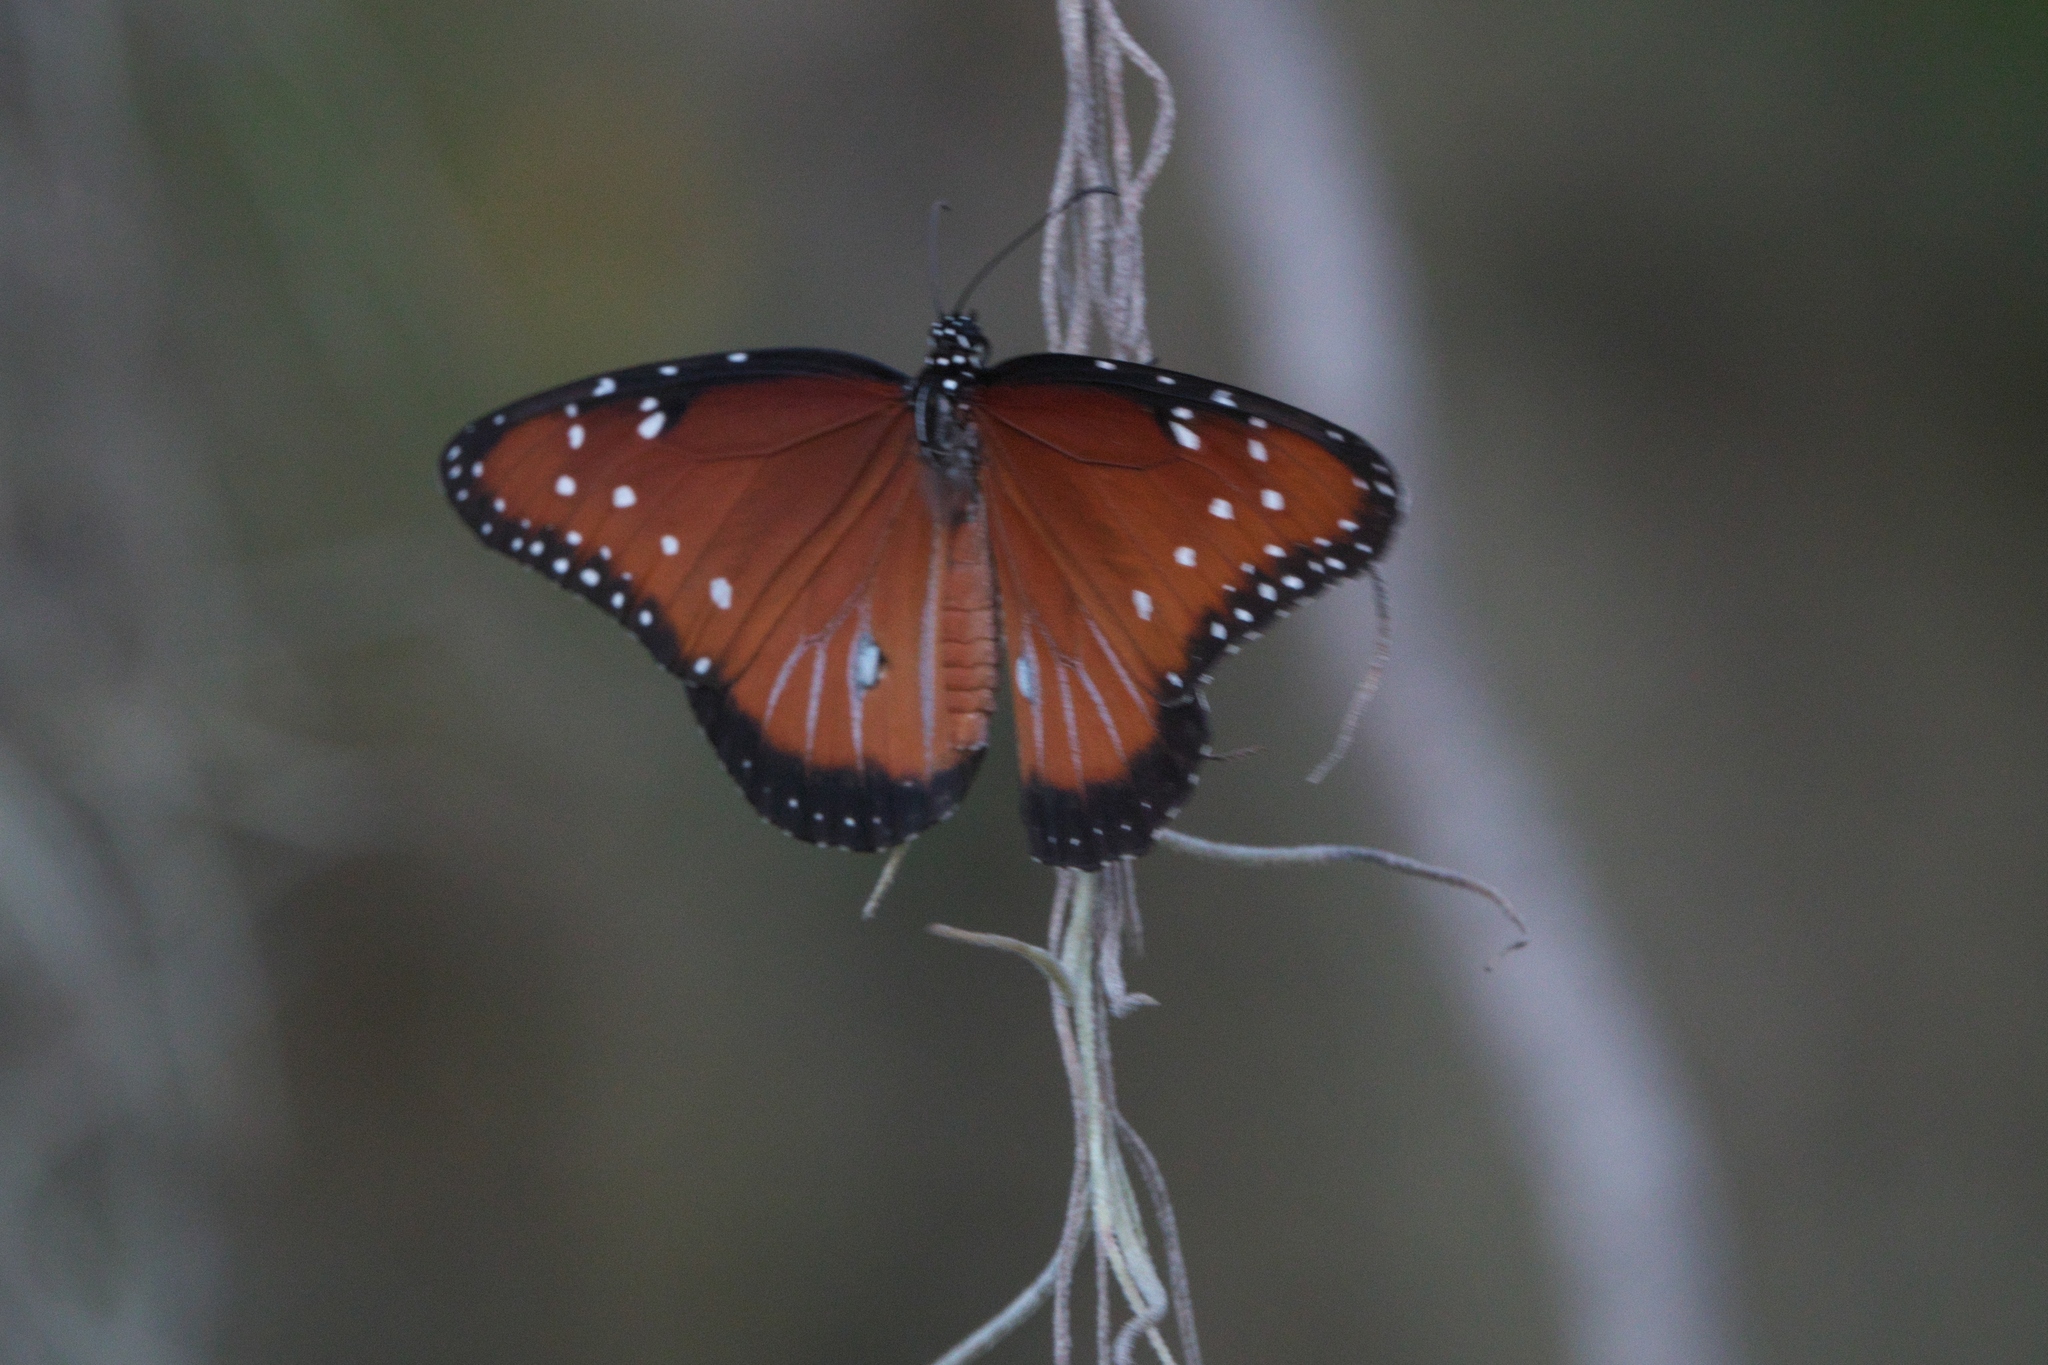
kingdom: Animalia
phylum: Arthropoda
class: Insecta
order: Lepidoptera
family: Nymphalidae
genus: Danaus
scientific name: Danaus gilippus
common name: Queen
